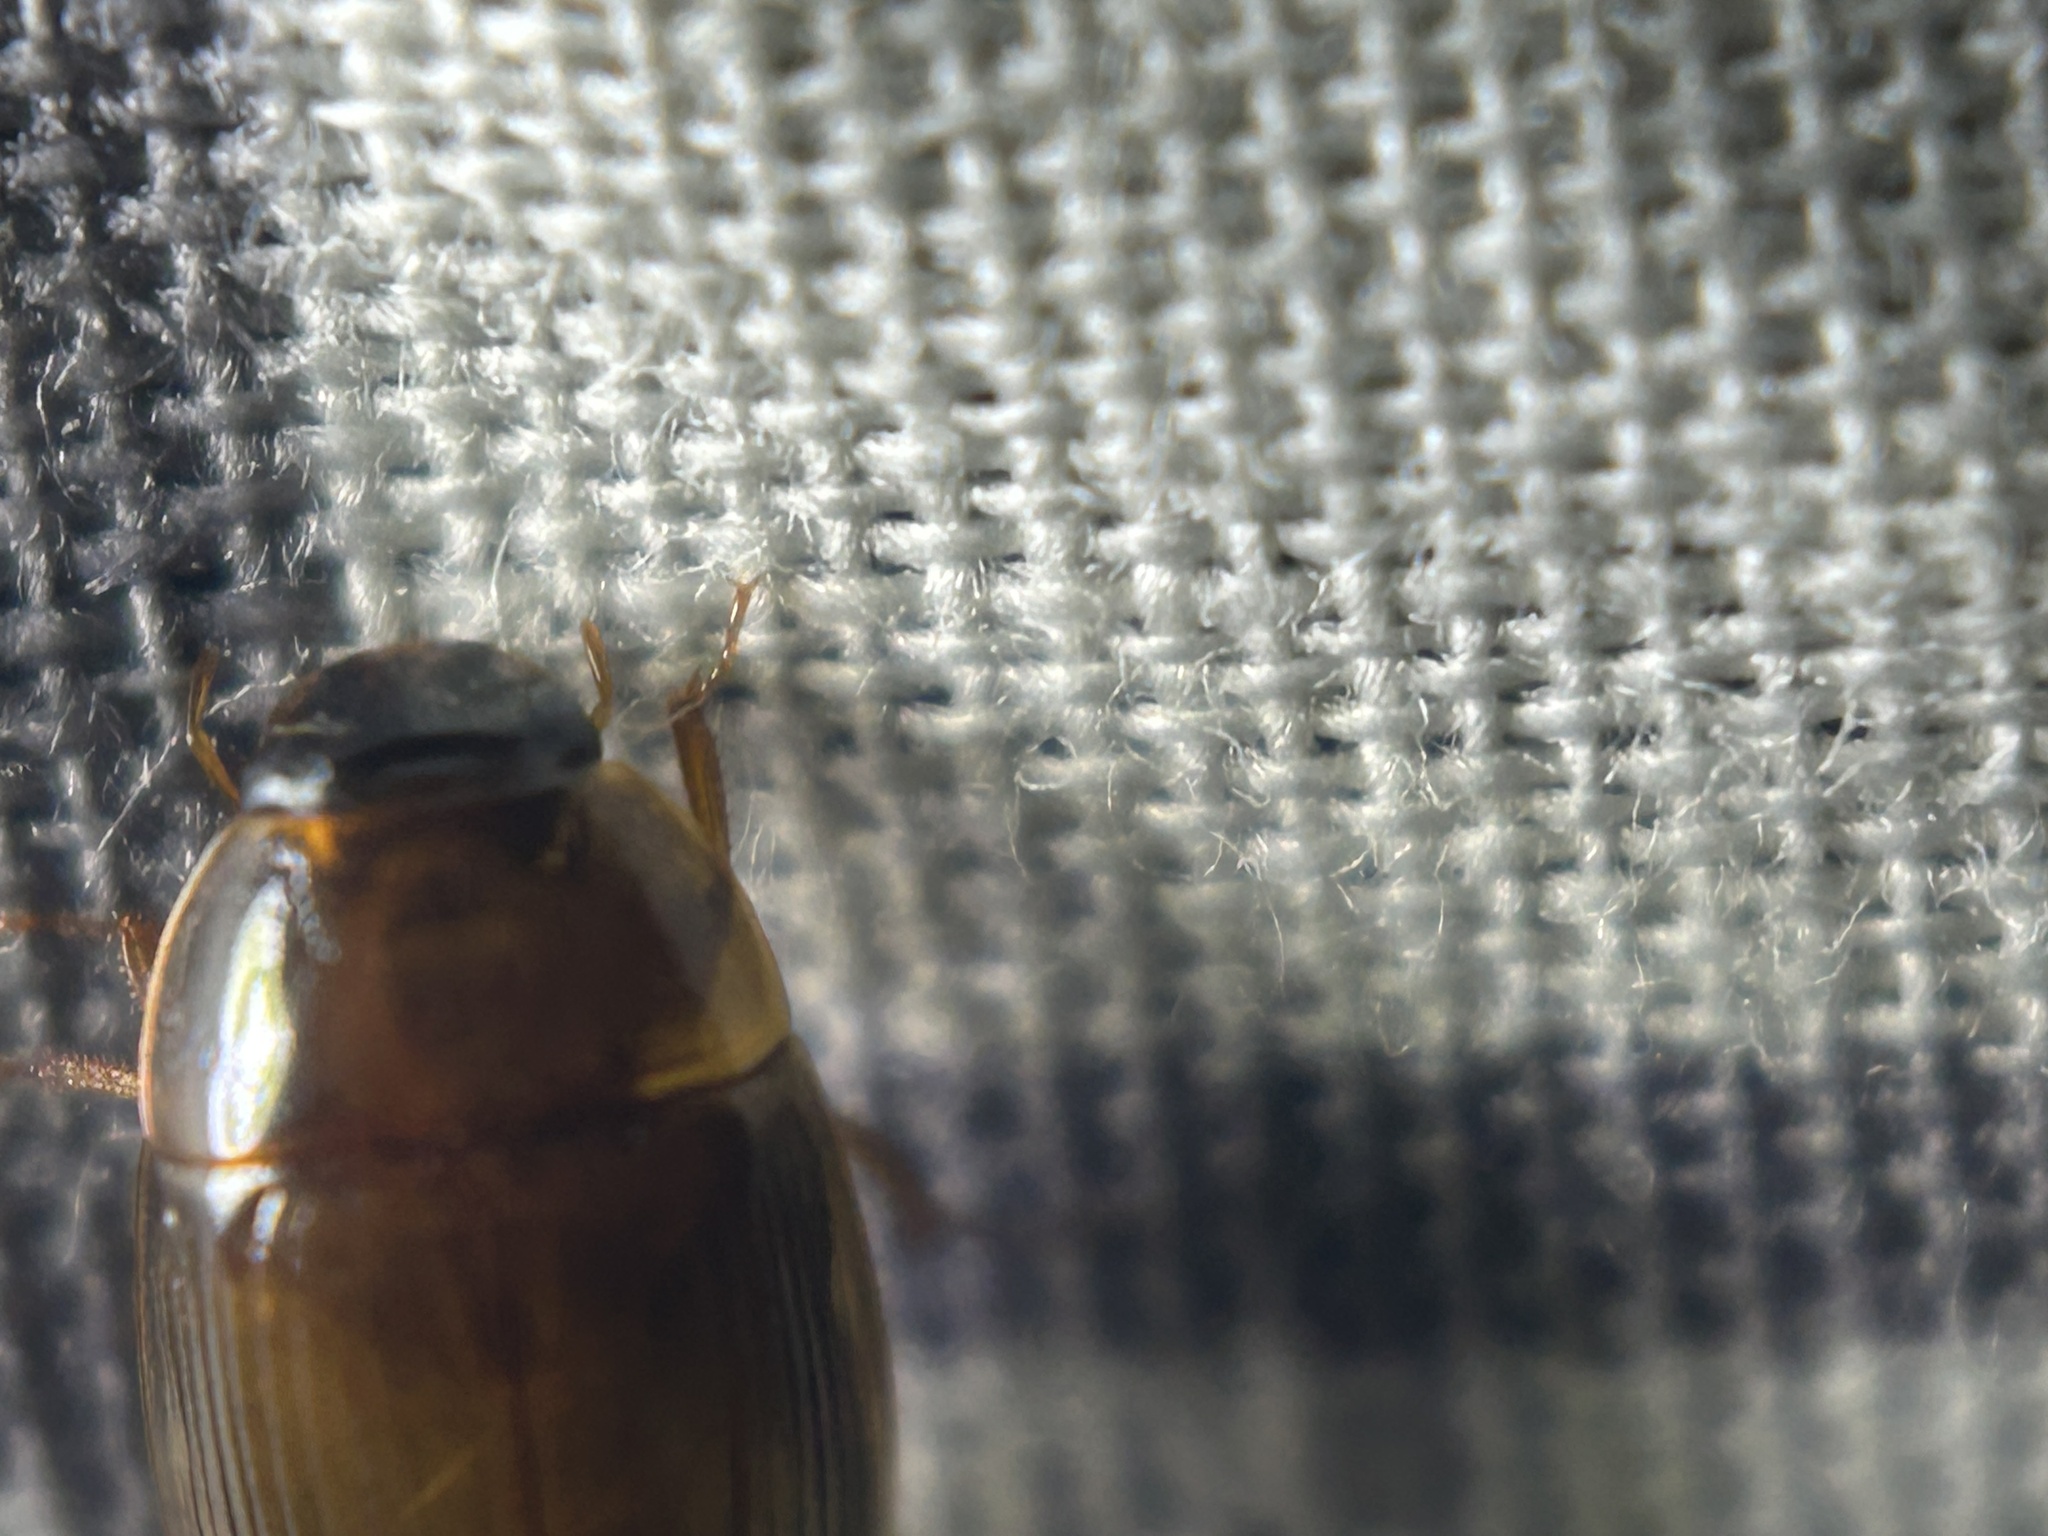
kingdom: Animalia
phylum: Arthropoda
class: Insecta
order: Coleoptera
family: Hydrophilidae
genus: Cymbiodyta
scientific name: Cymbiodyta bifida
